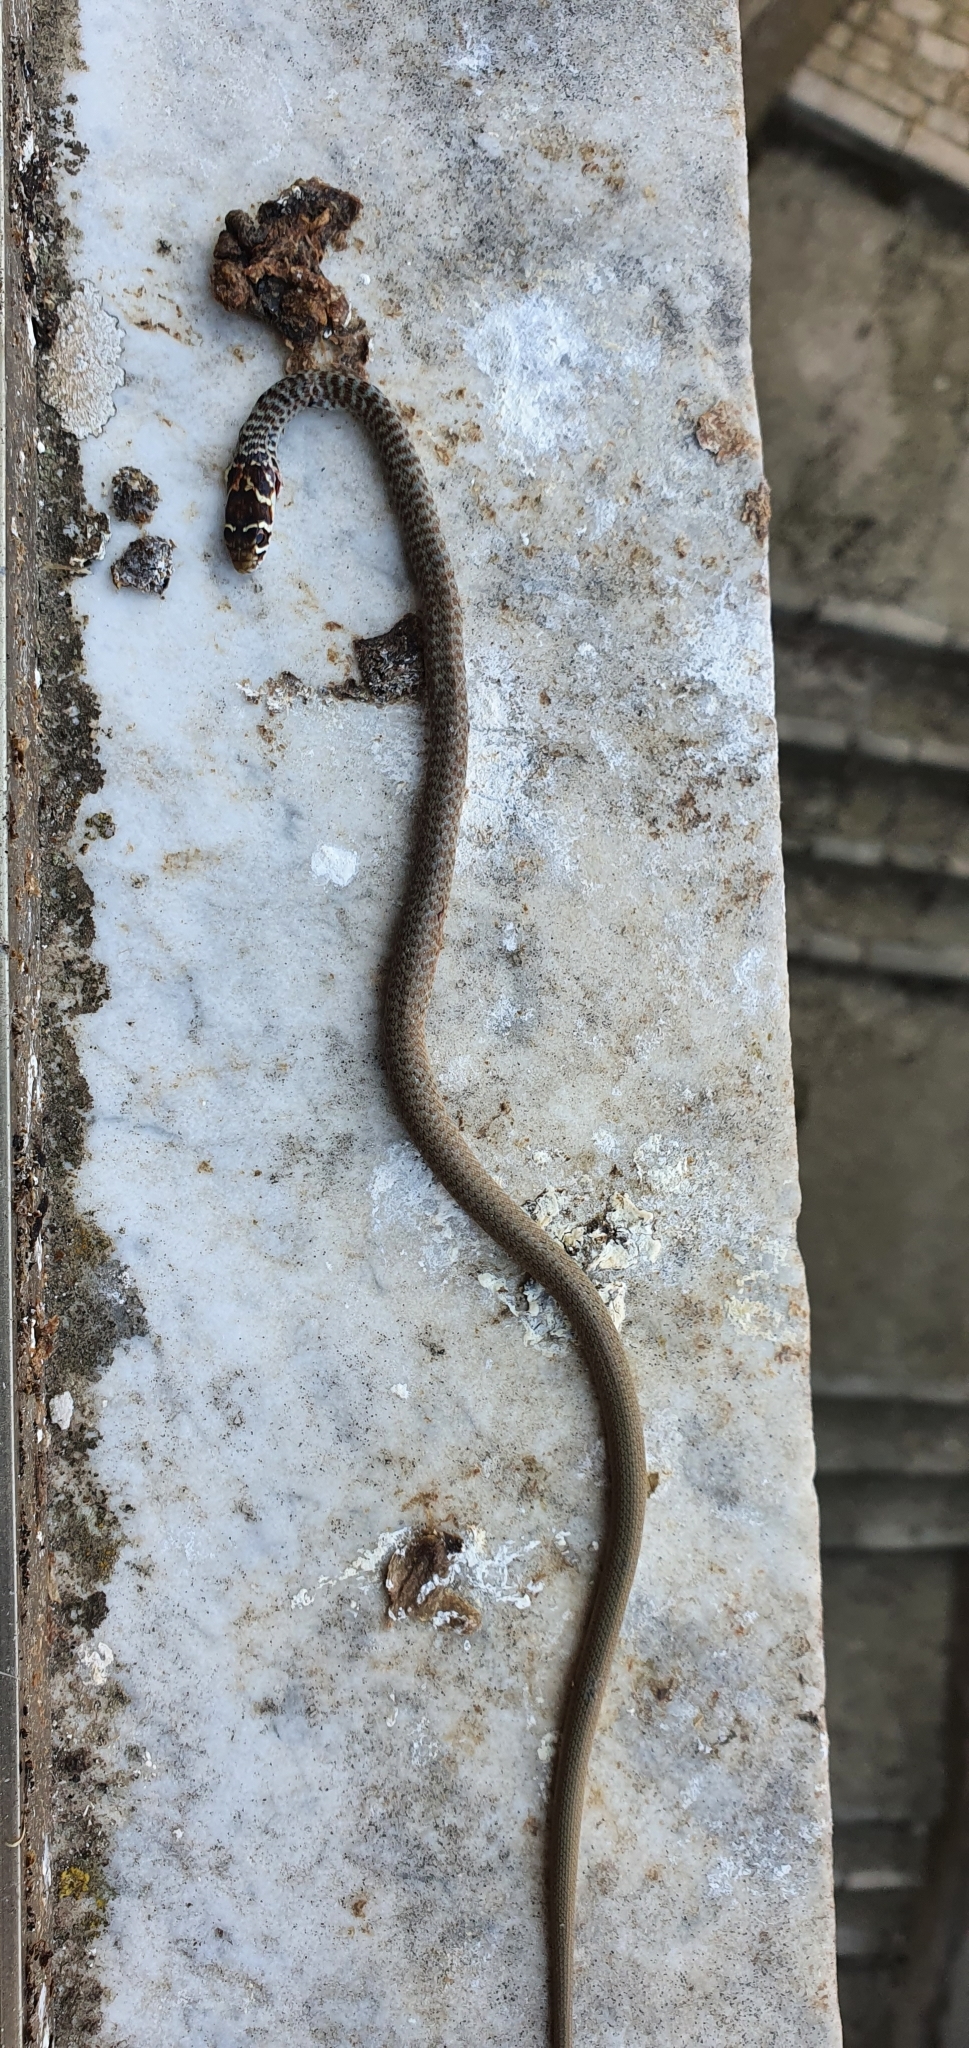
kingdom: Animalia
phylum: Chordata
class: Squamata
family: Colubridae
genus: Hierophis
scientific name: Hierophis viridiflavus
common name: Green whip snake
